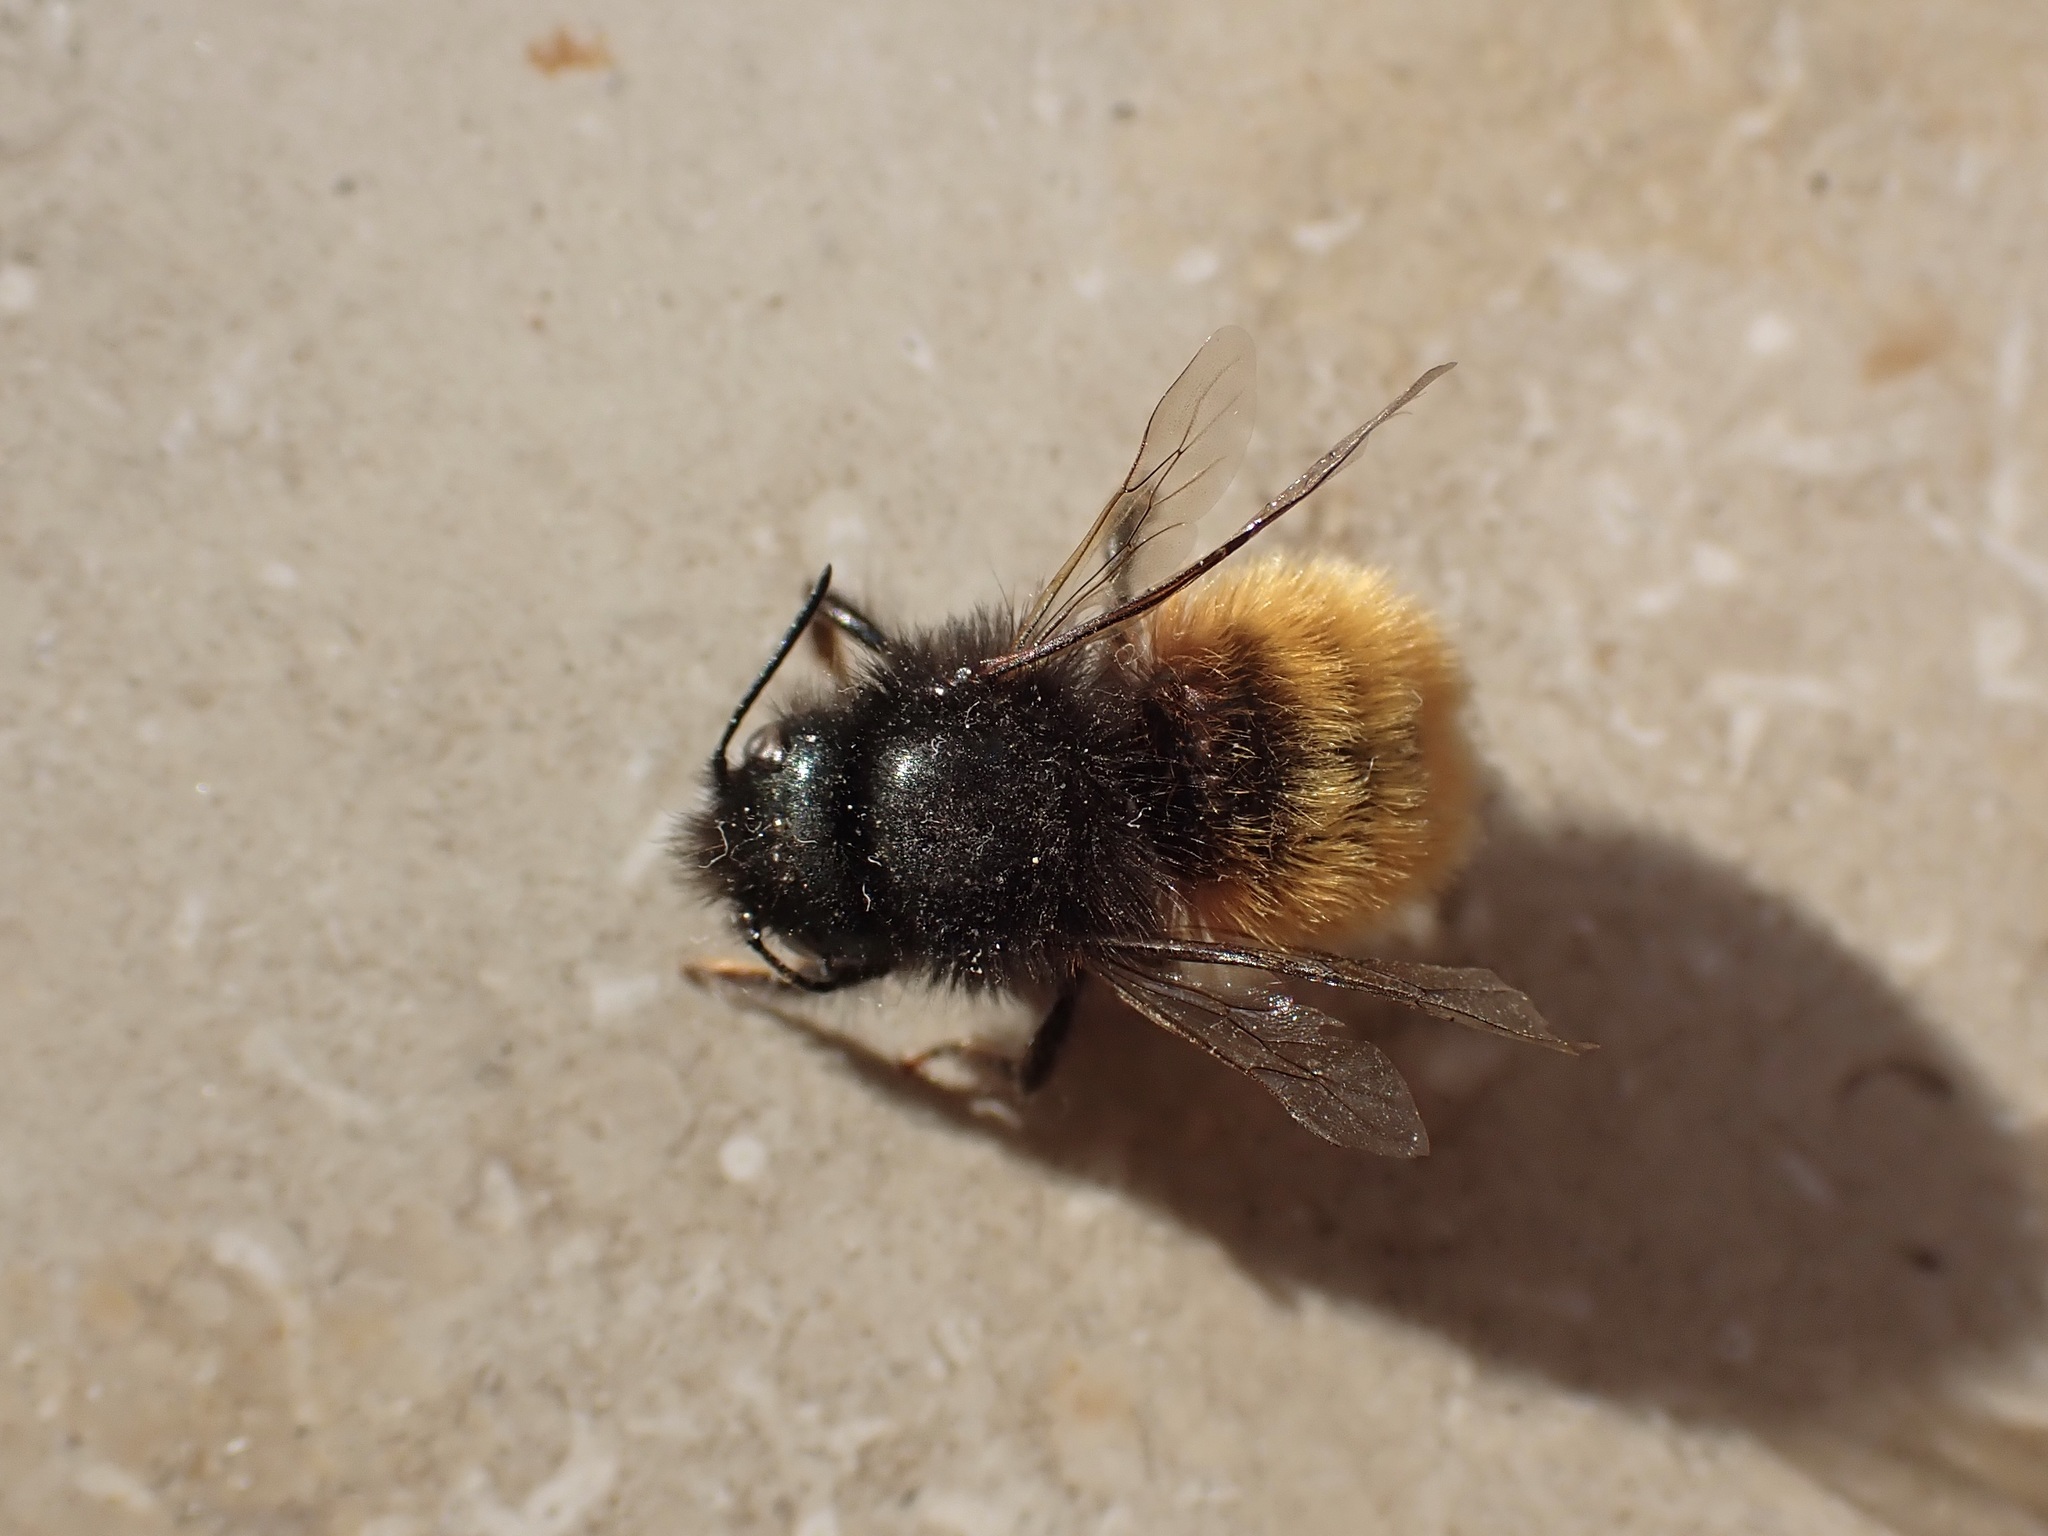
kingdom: Animalia
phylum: Arthropoda
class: Insecta
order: Hymenoptera
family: Megachilidae
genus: Osmia
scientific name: Osmia cornuta
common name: Mason bee
